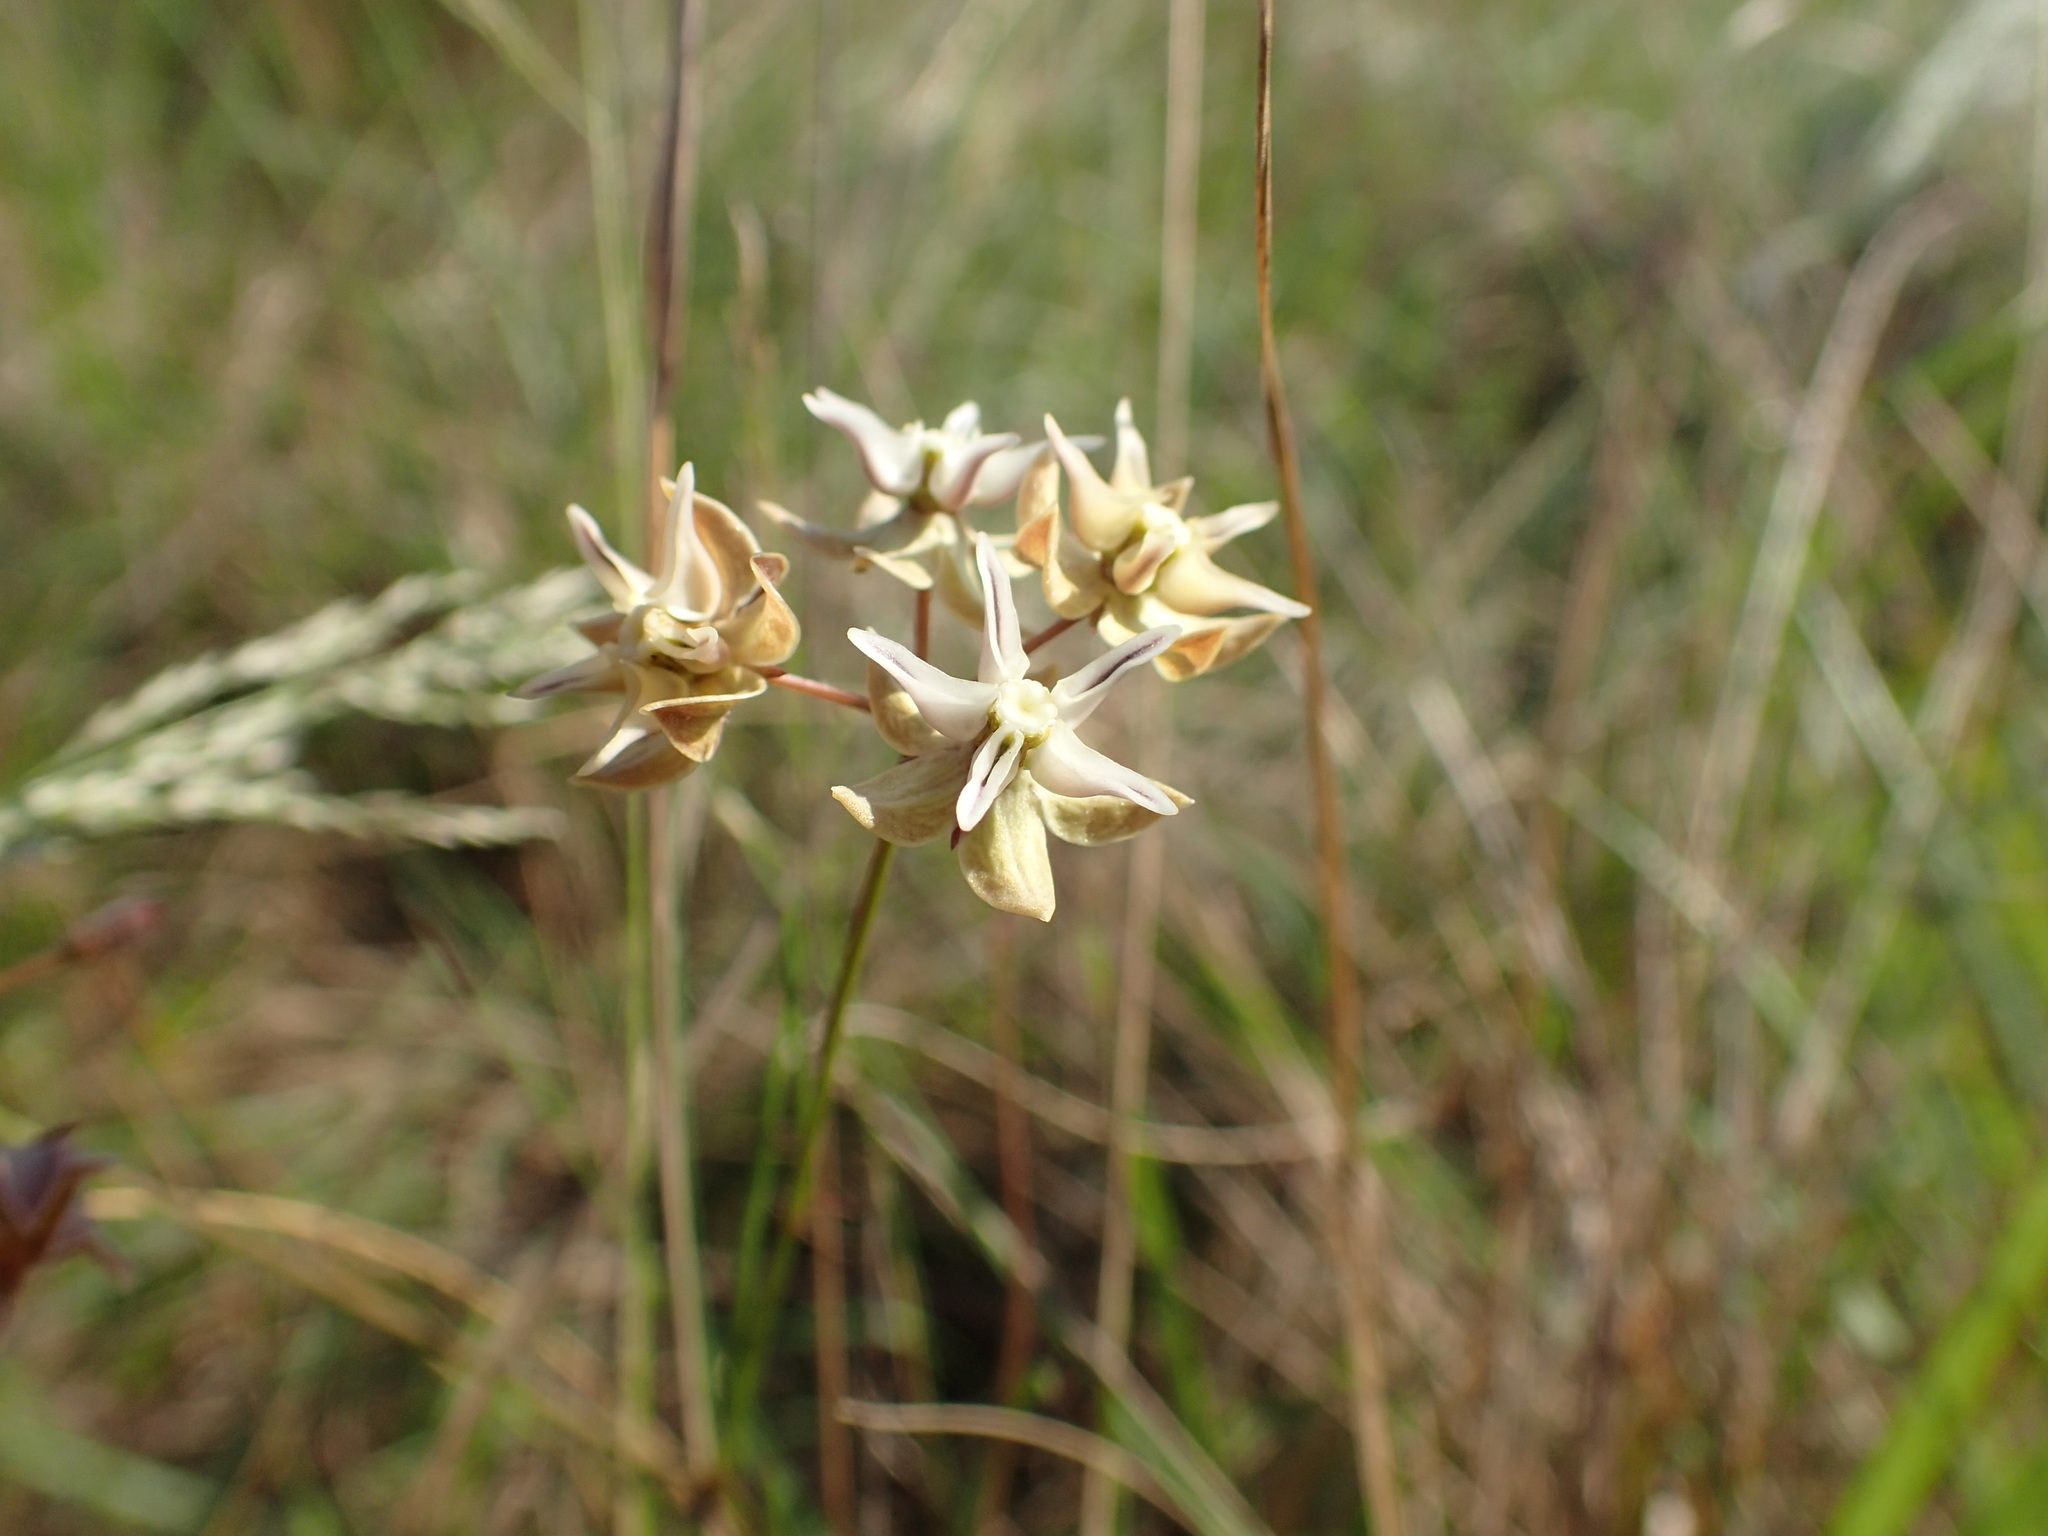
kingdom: Plantae
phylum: Tracheophyta
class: Magnoliopsida
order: Gentianales
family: Apocynaceae
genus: Asclepias
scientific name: Asclepias aurea
